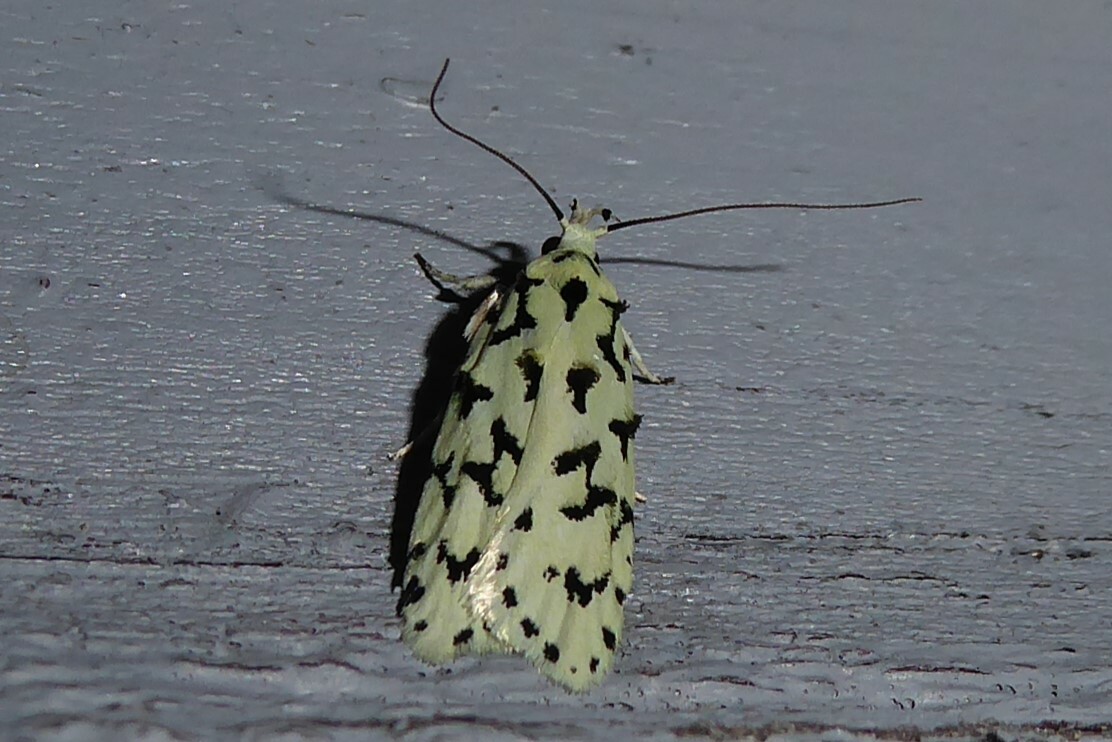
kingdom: Animalia
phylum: Arthropoda
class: Insecta
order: Lepidoptera
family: Oecophoridae
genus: Izatha
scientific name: Izatha huttoni
